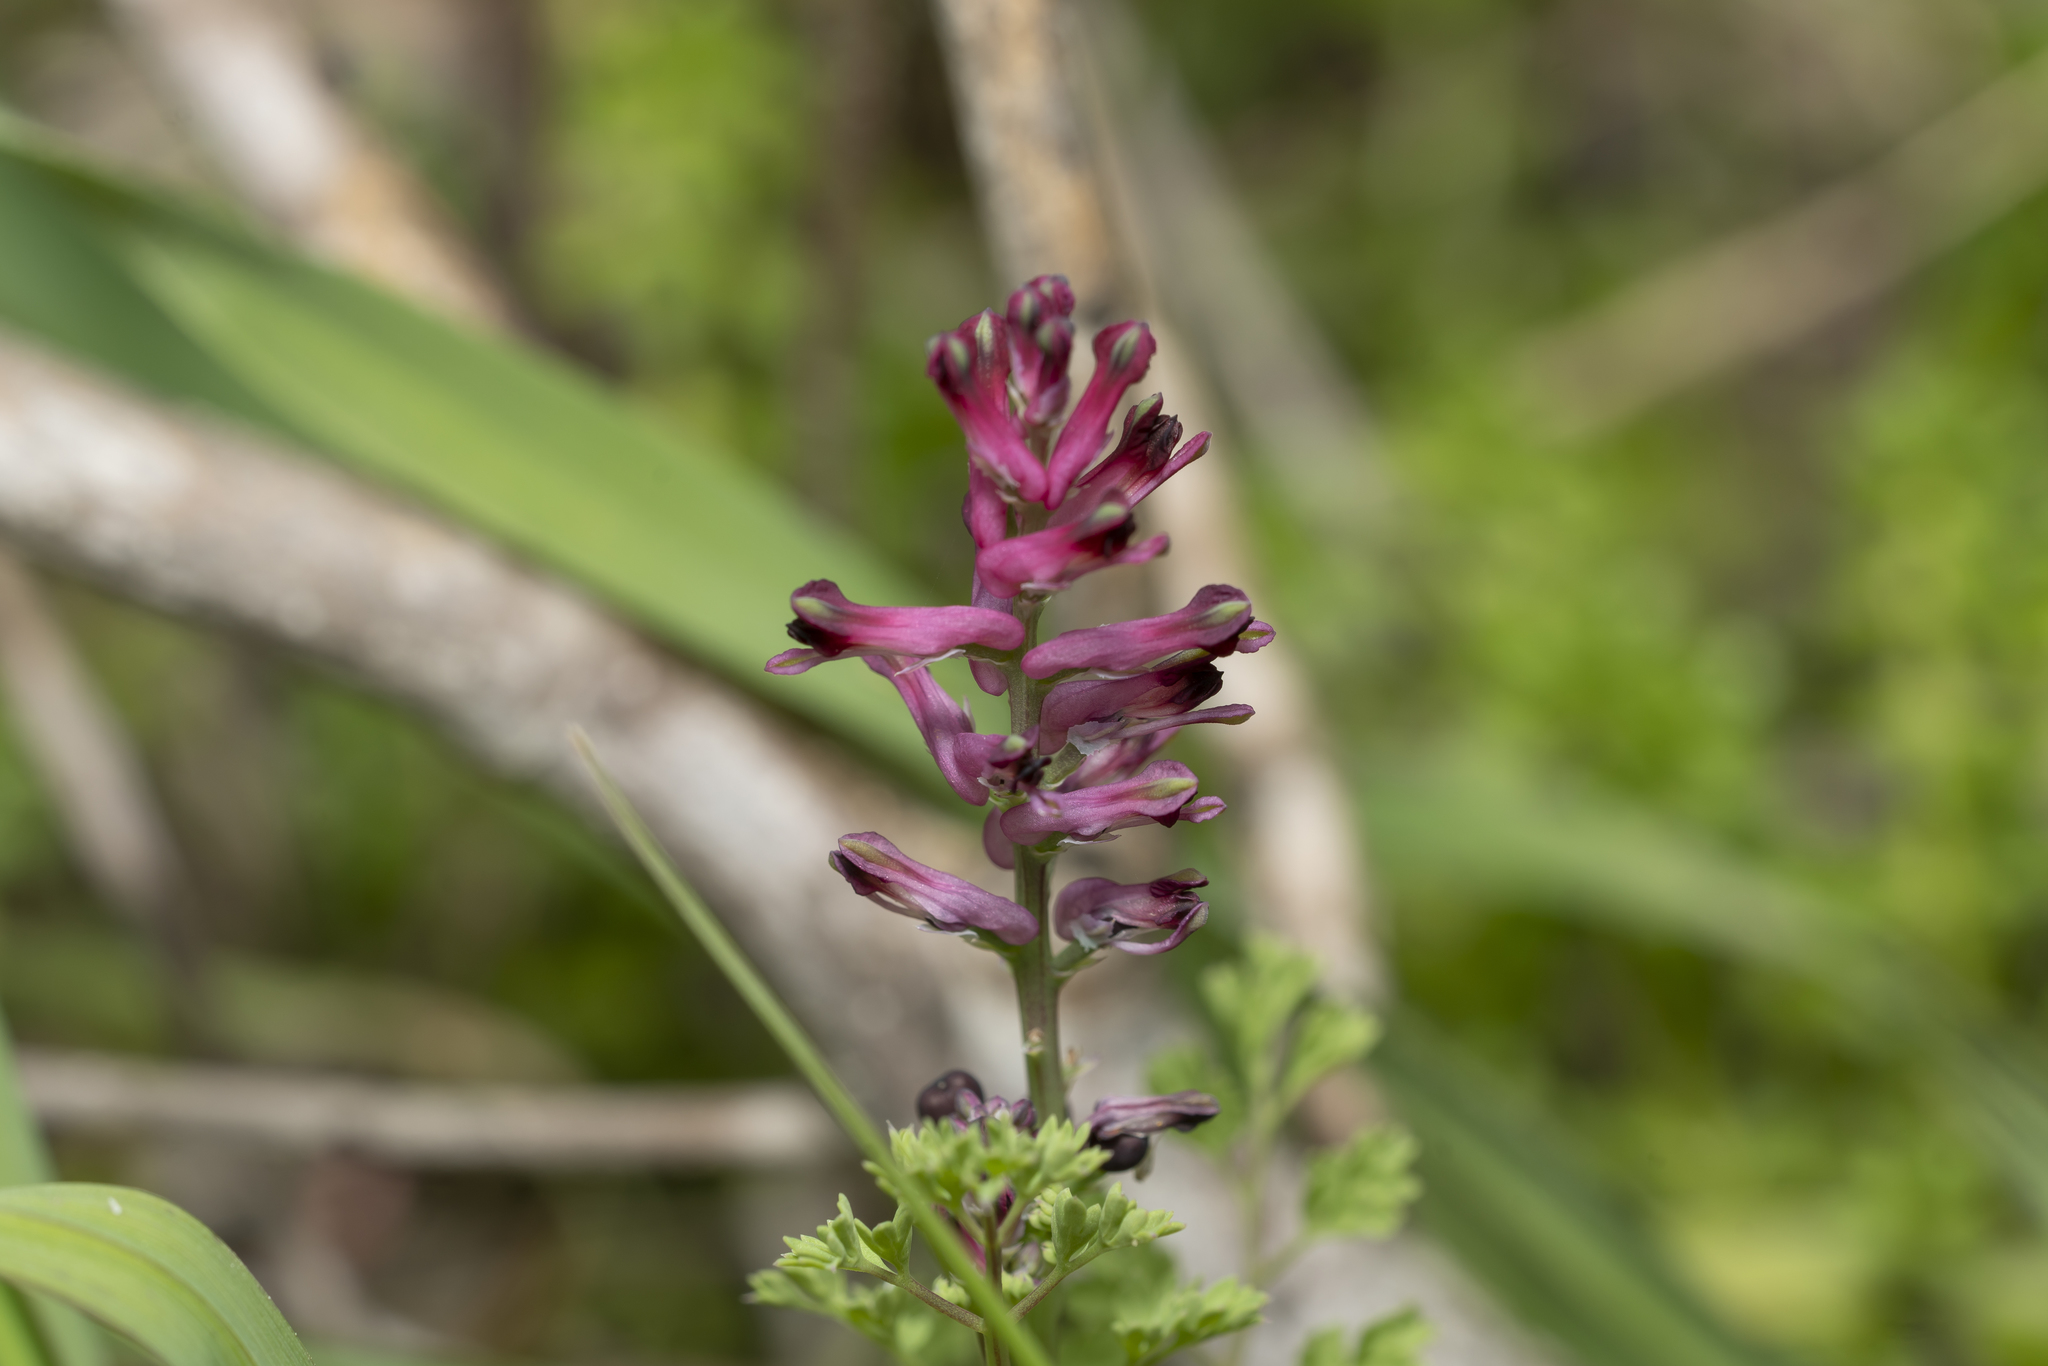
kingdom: Plantae
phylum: Tracheophyta
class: Magnoliopsida
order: Ranunculales
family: Papaveraceae
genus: Fumaria
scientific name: Fumaria officinalis
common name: Common fumitory
